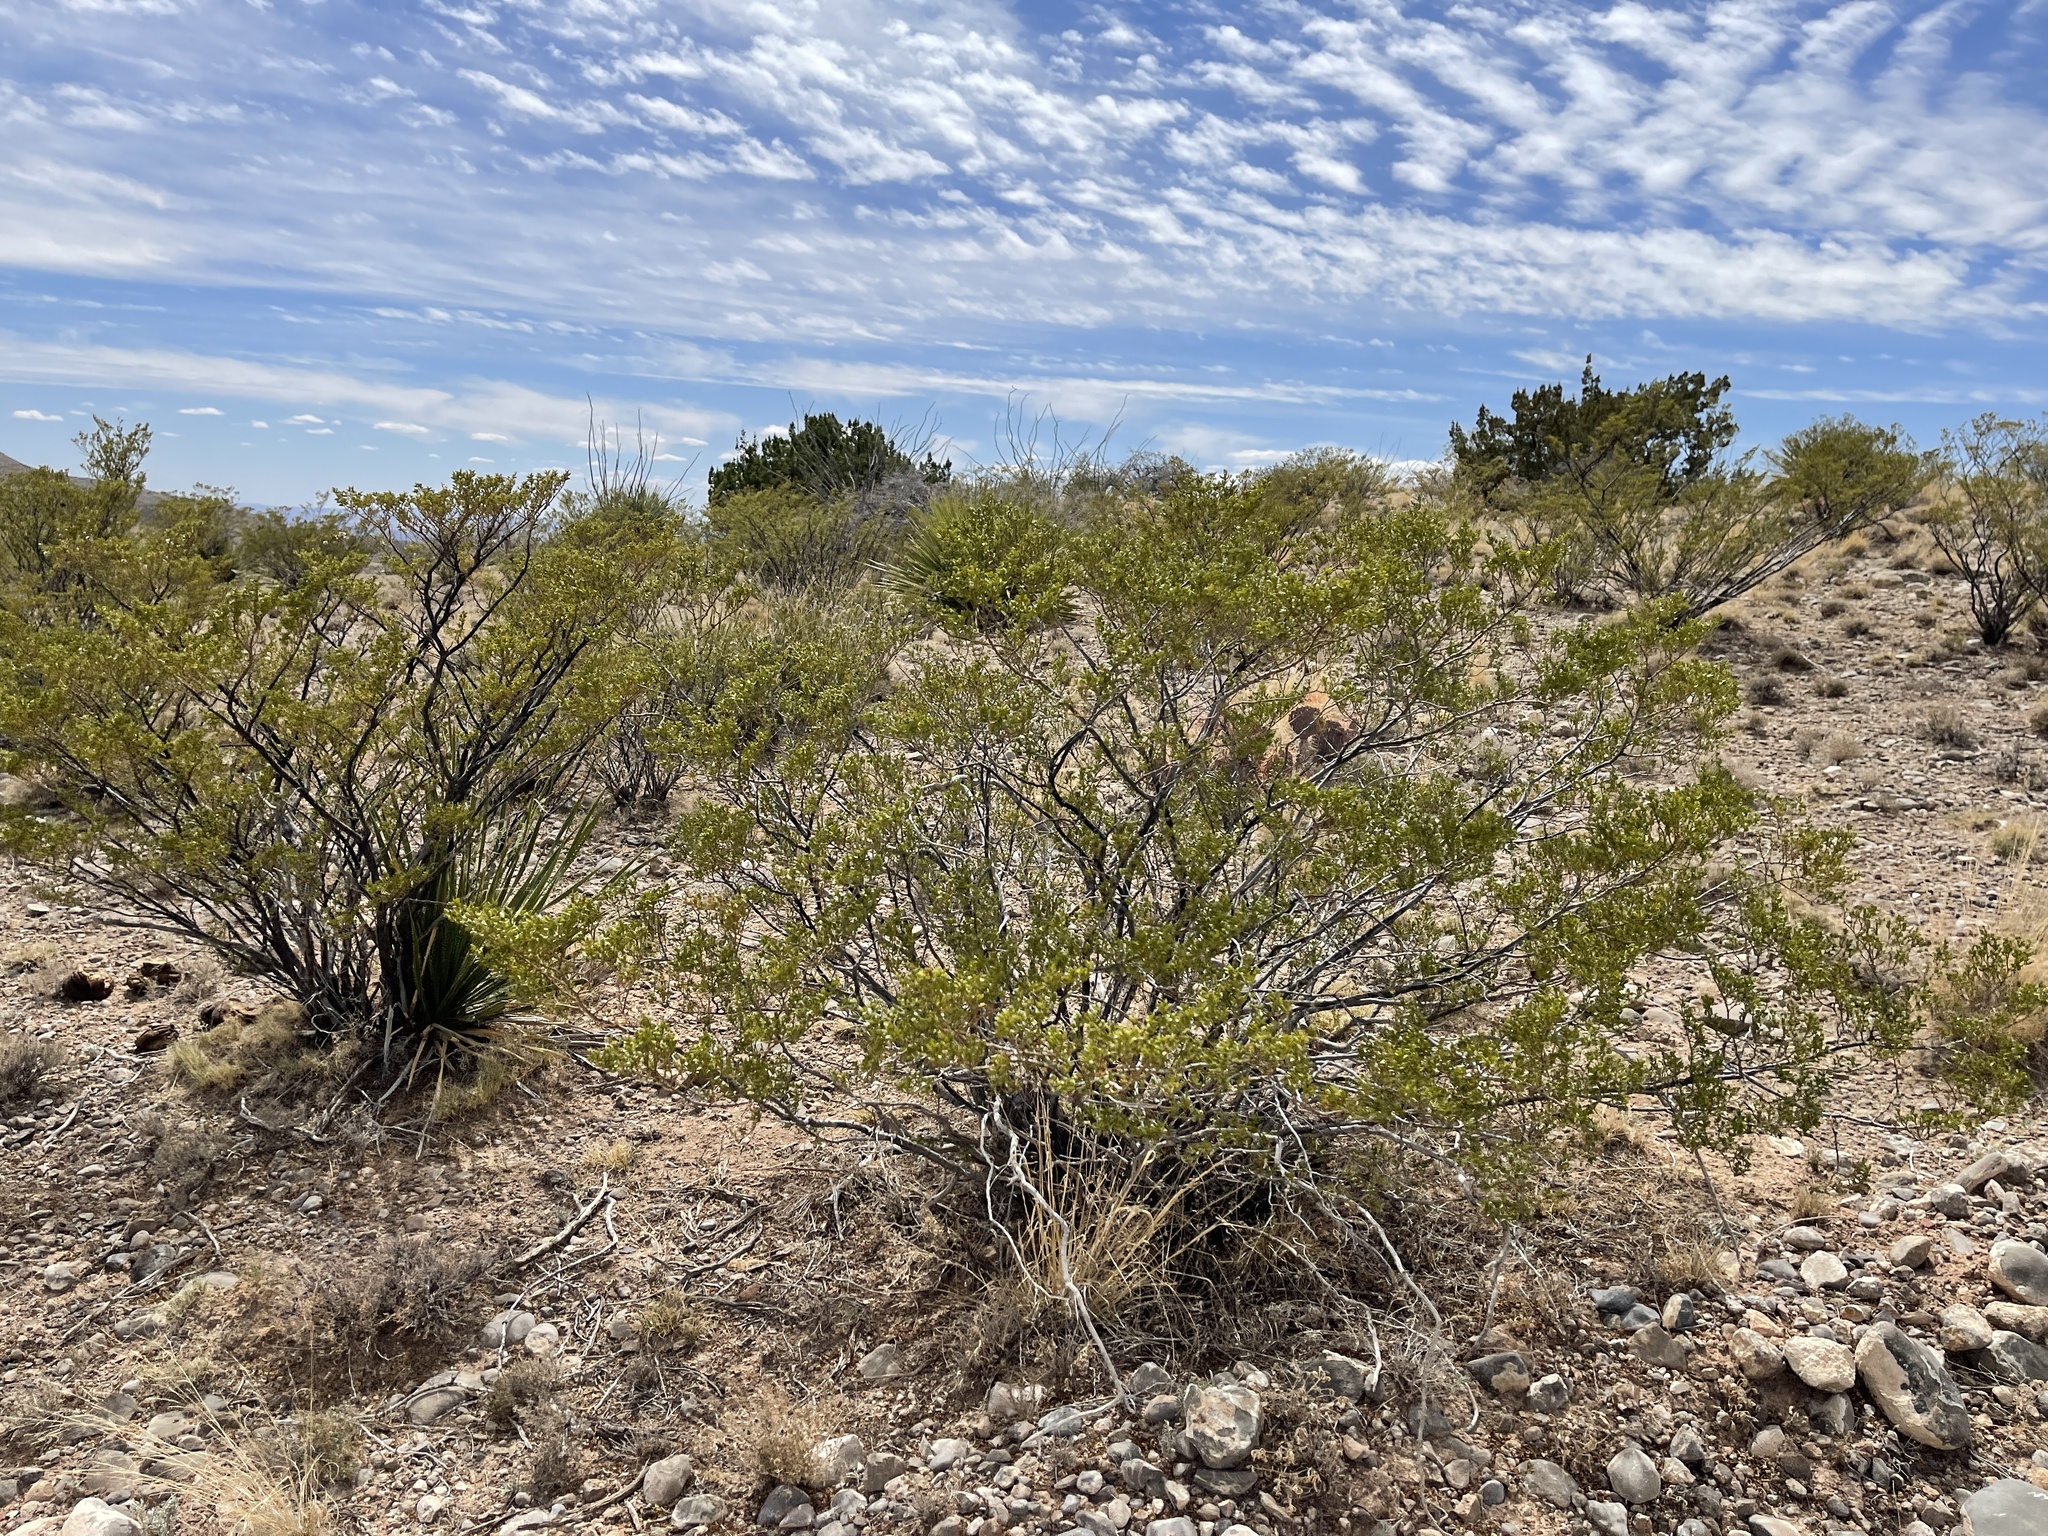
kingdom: Plantae
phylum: Tracheophyta
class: Magnoliopsida
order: Zygophyllales
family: Zygophyllaceae
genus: Larrea
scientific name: Larrea tridentata
